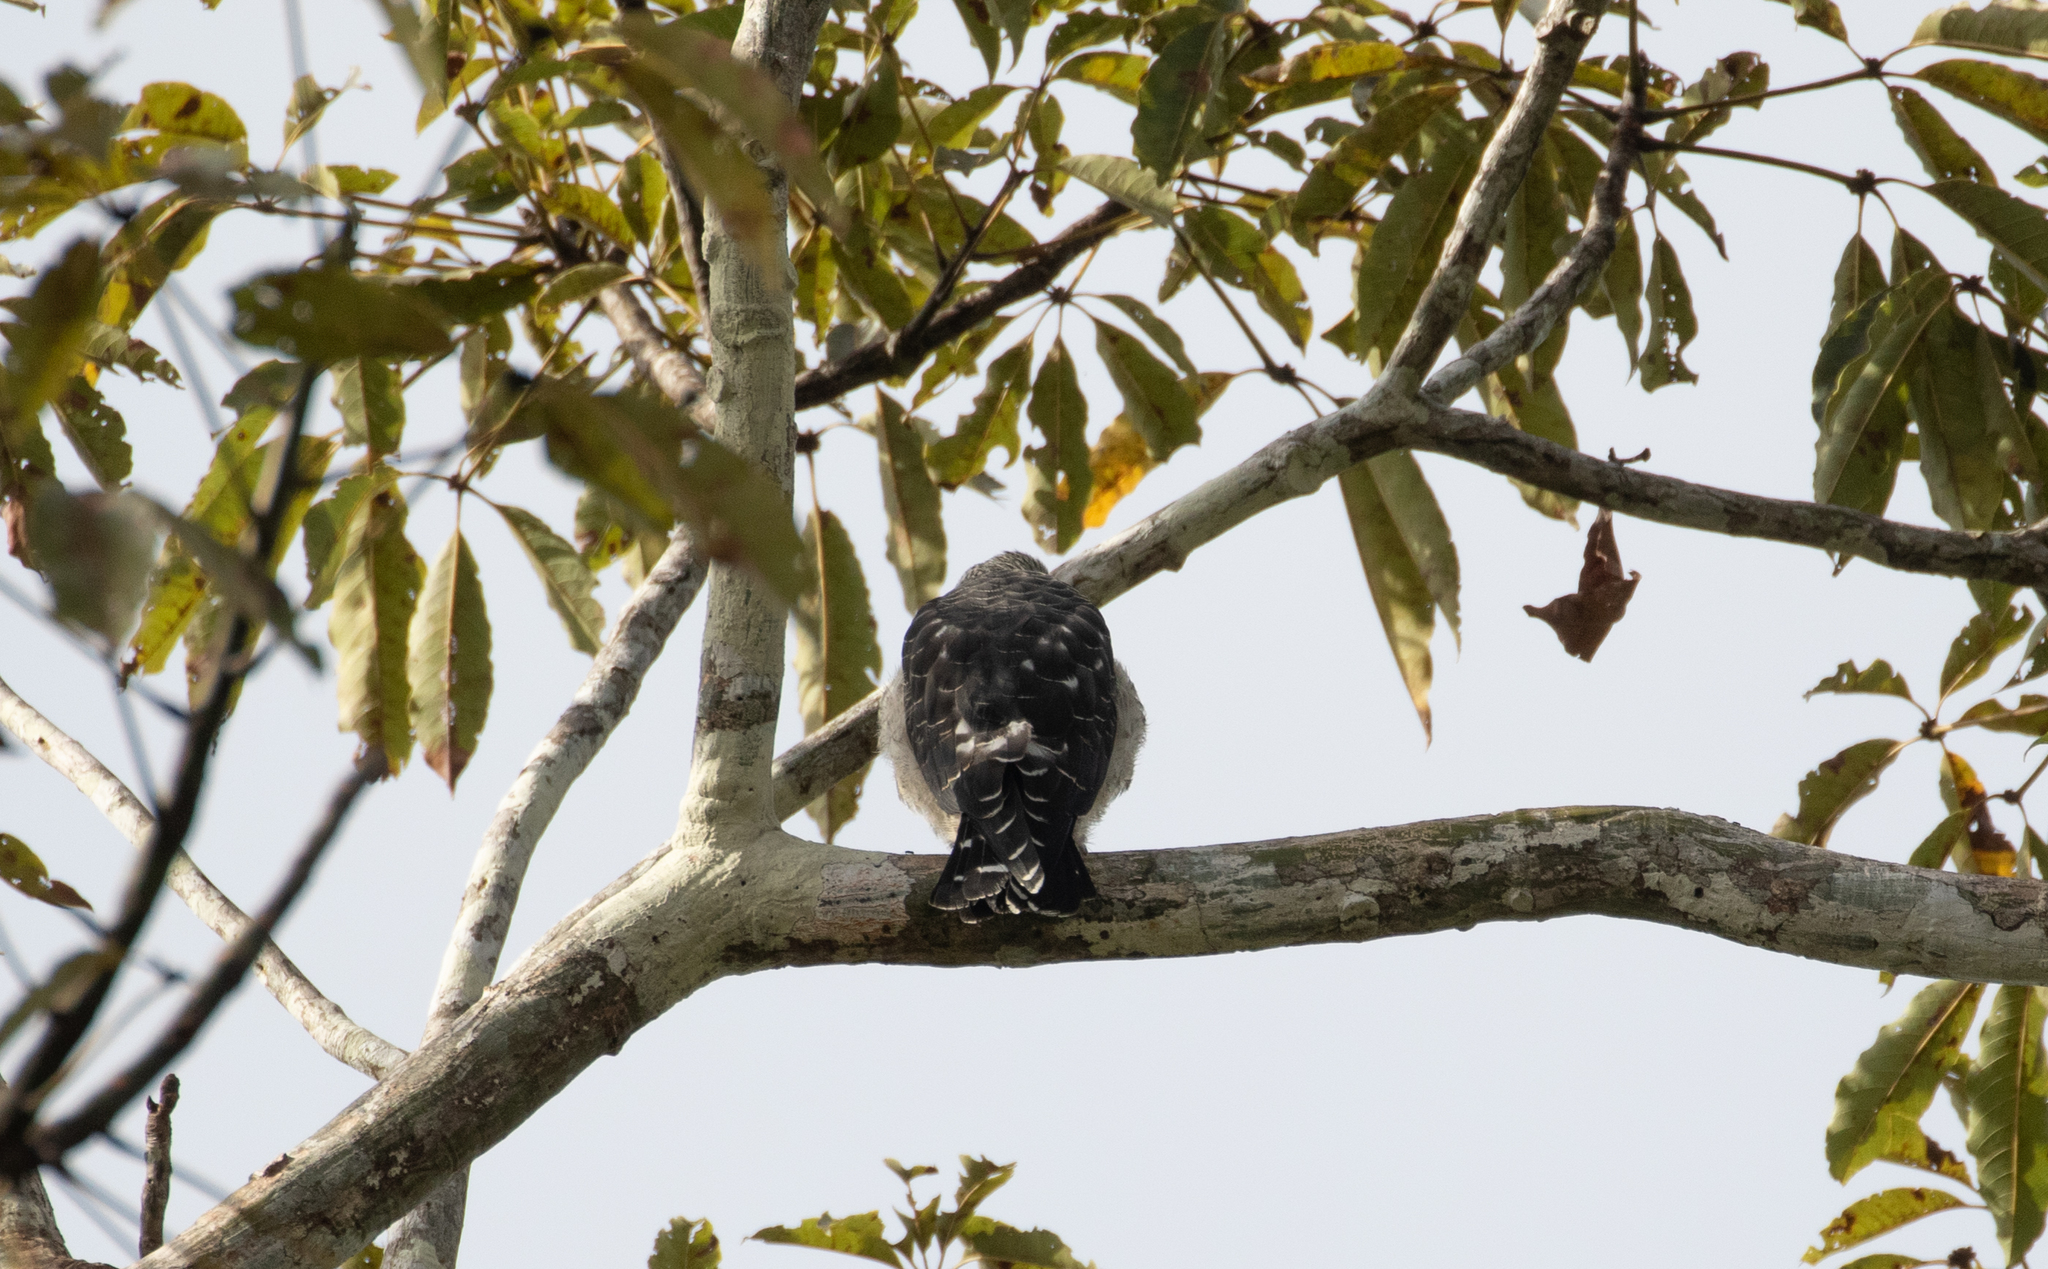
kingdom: Animalia
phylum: Chordata
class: Aves
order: Accipitriformes
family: Accipitridae
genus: Ictinia
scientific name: Ictinia plumbea
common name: Plumbeous kite
